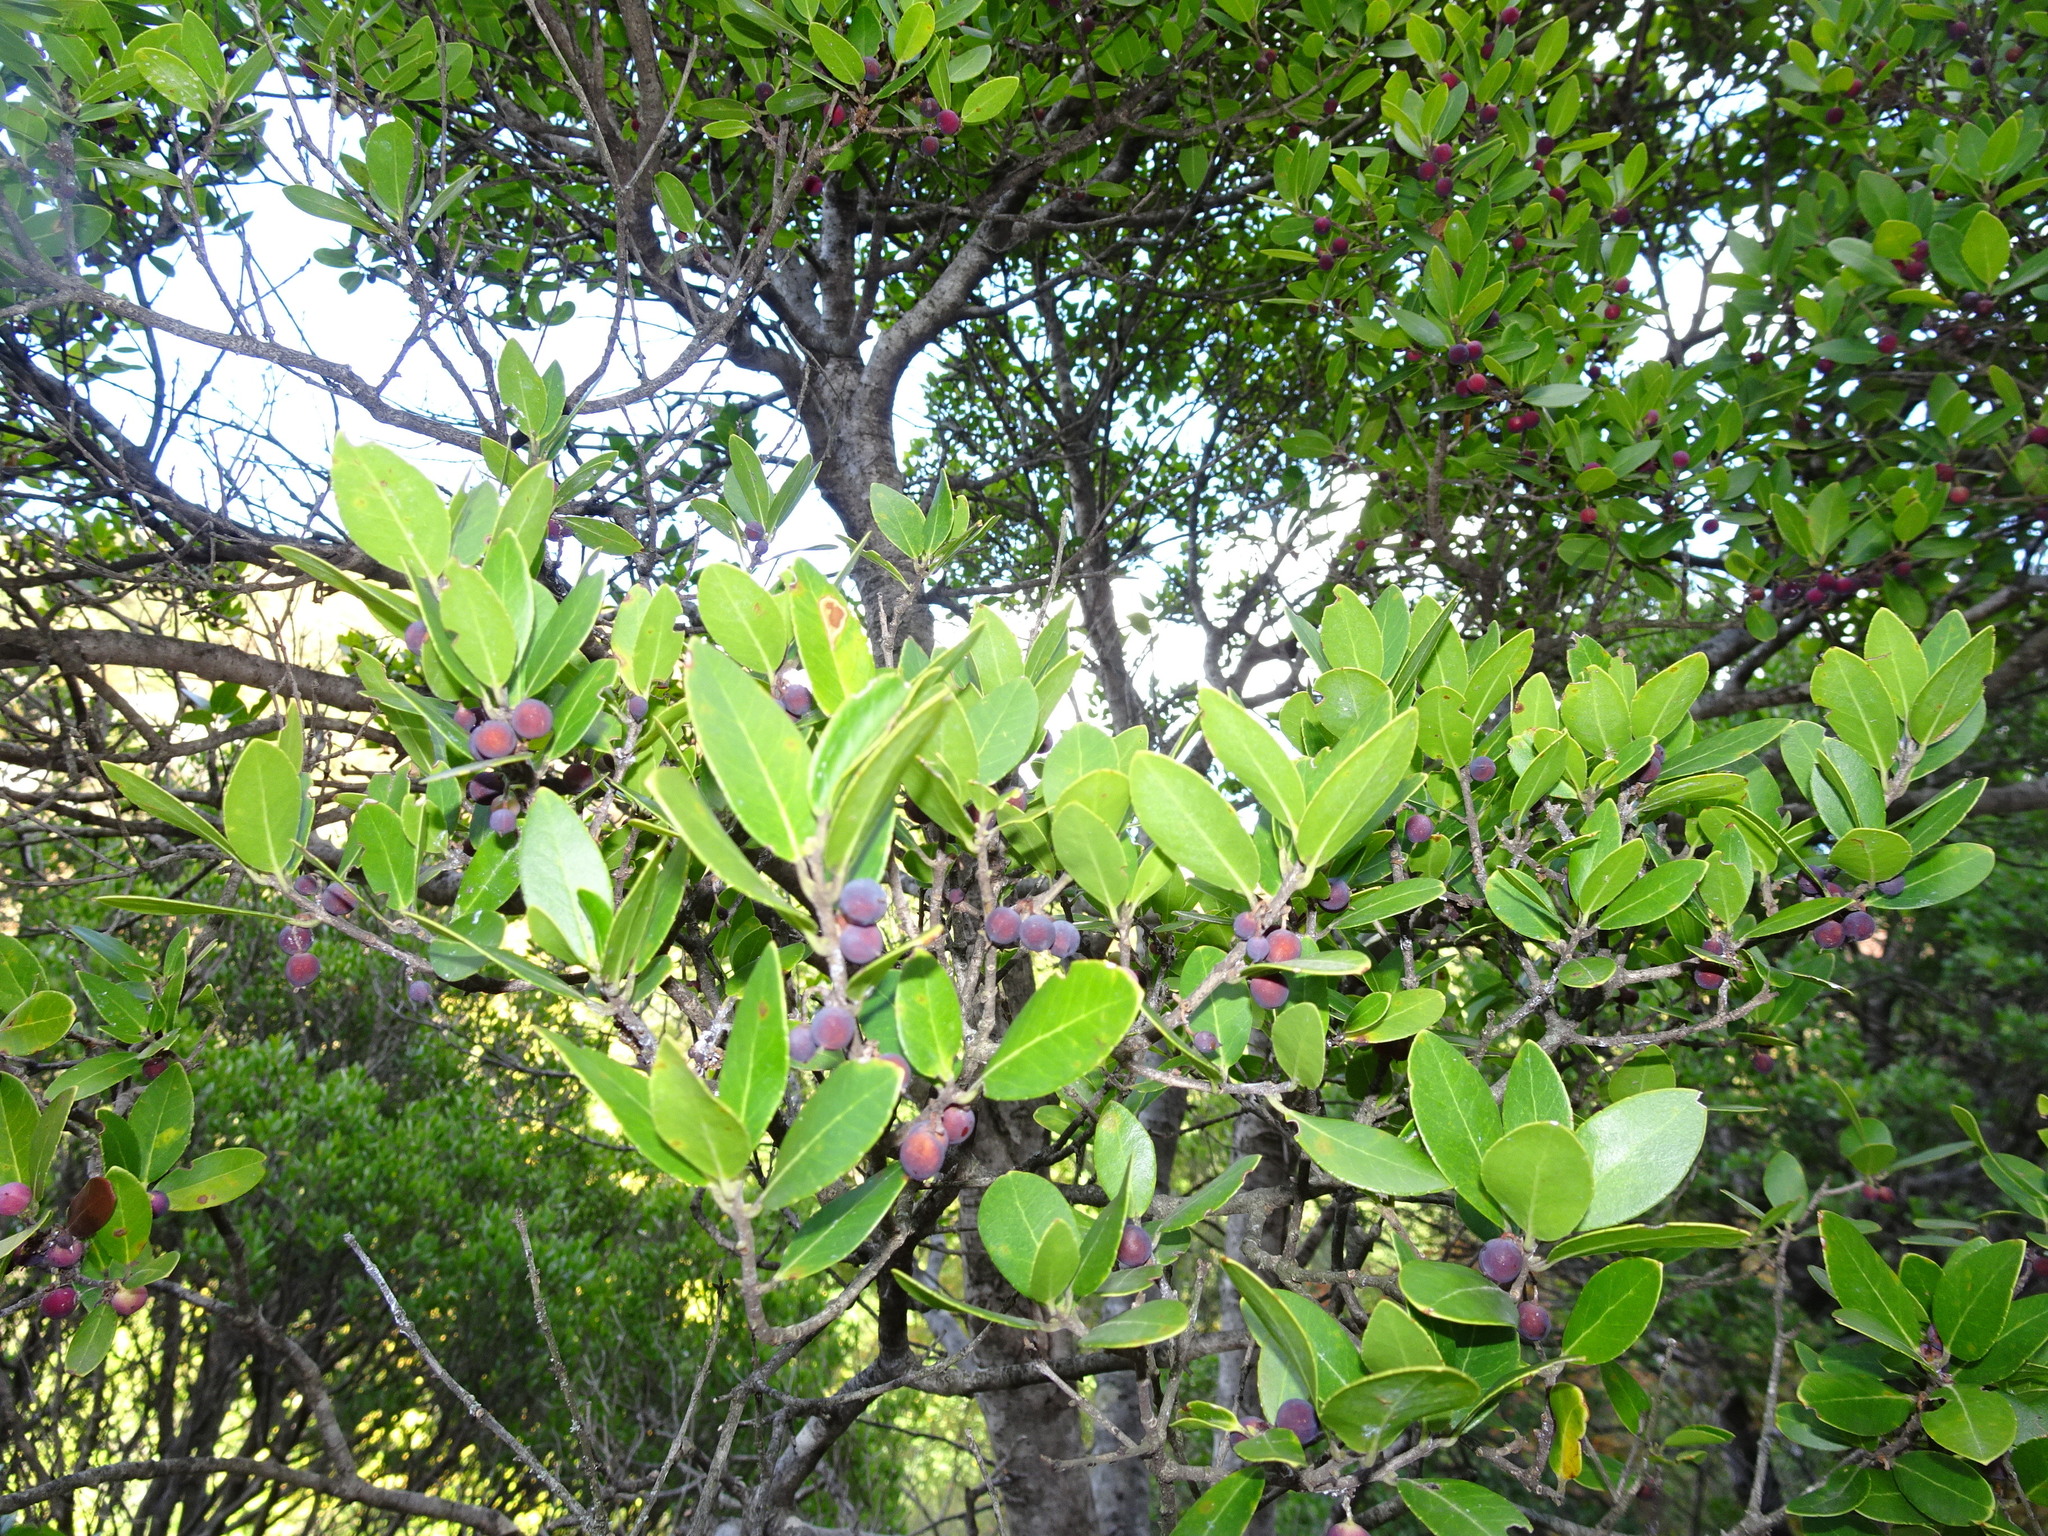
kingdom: Plantae
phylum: Tracheophyta
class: Magnoliopsida
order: Lamiales
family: Oleaceae
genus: Phillyrea
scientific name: Phillyrea latifolia
